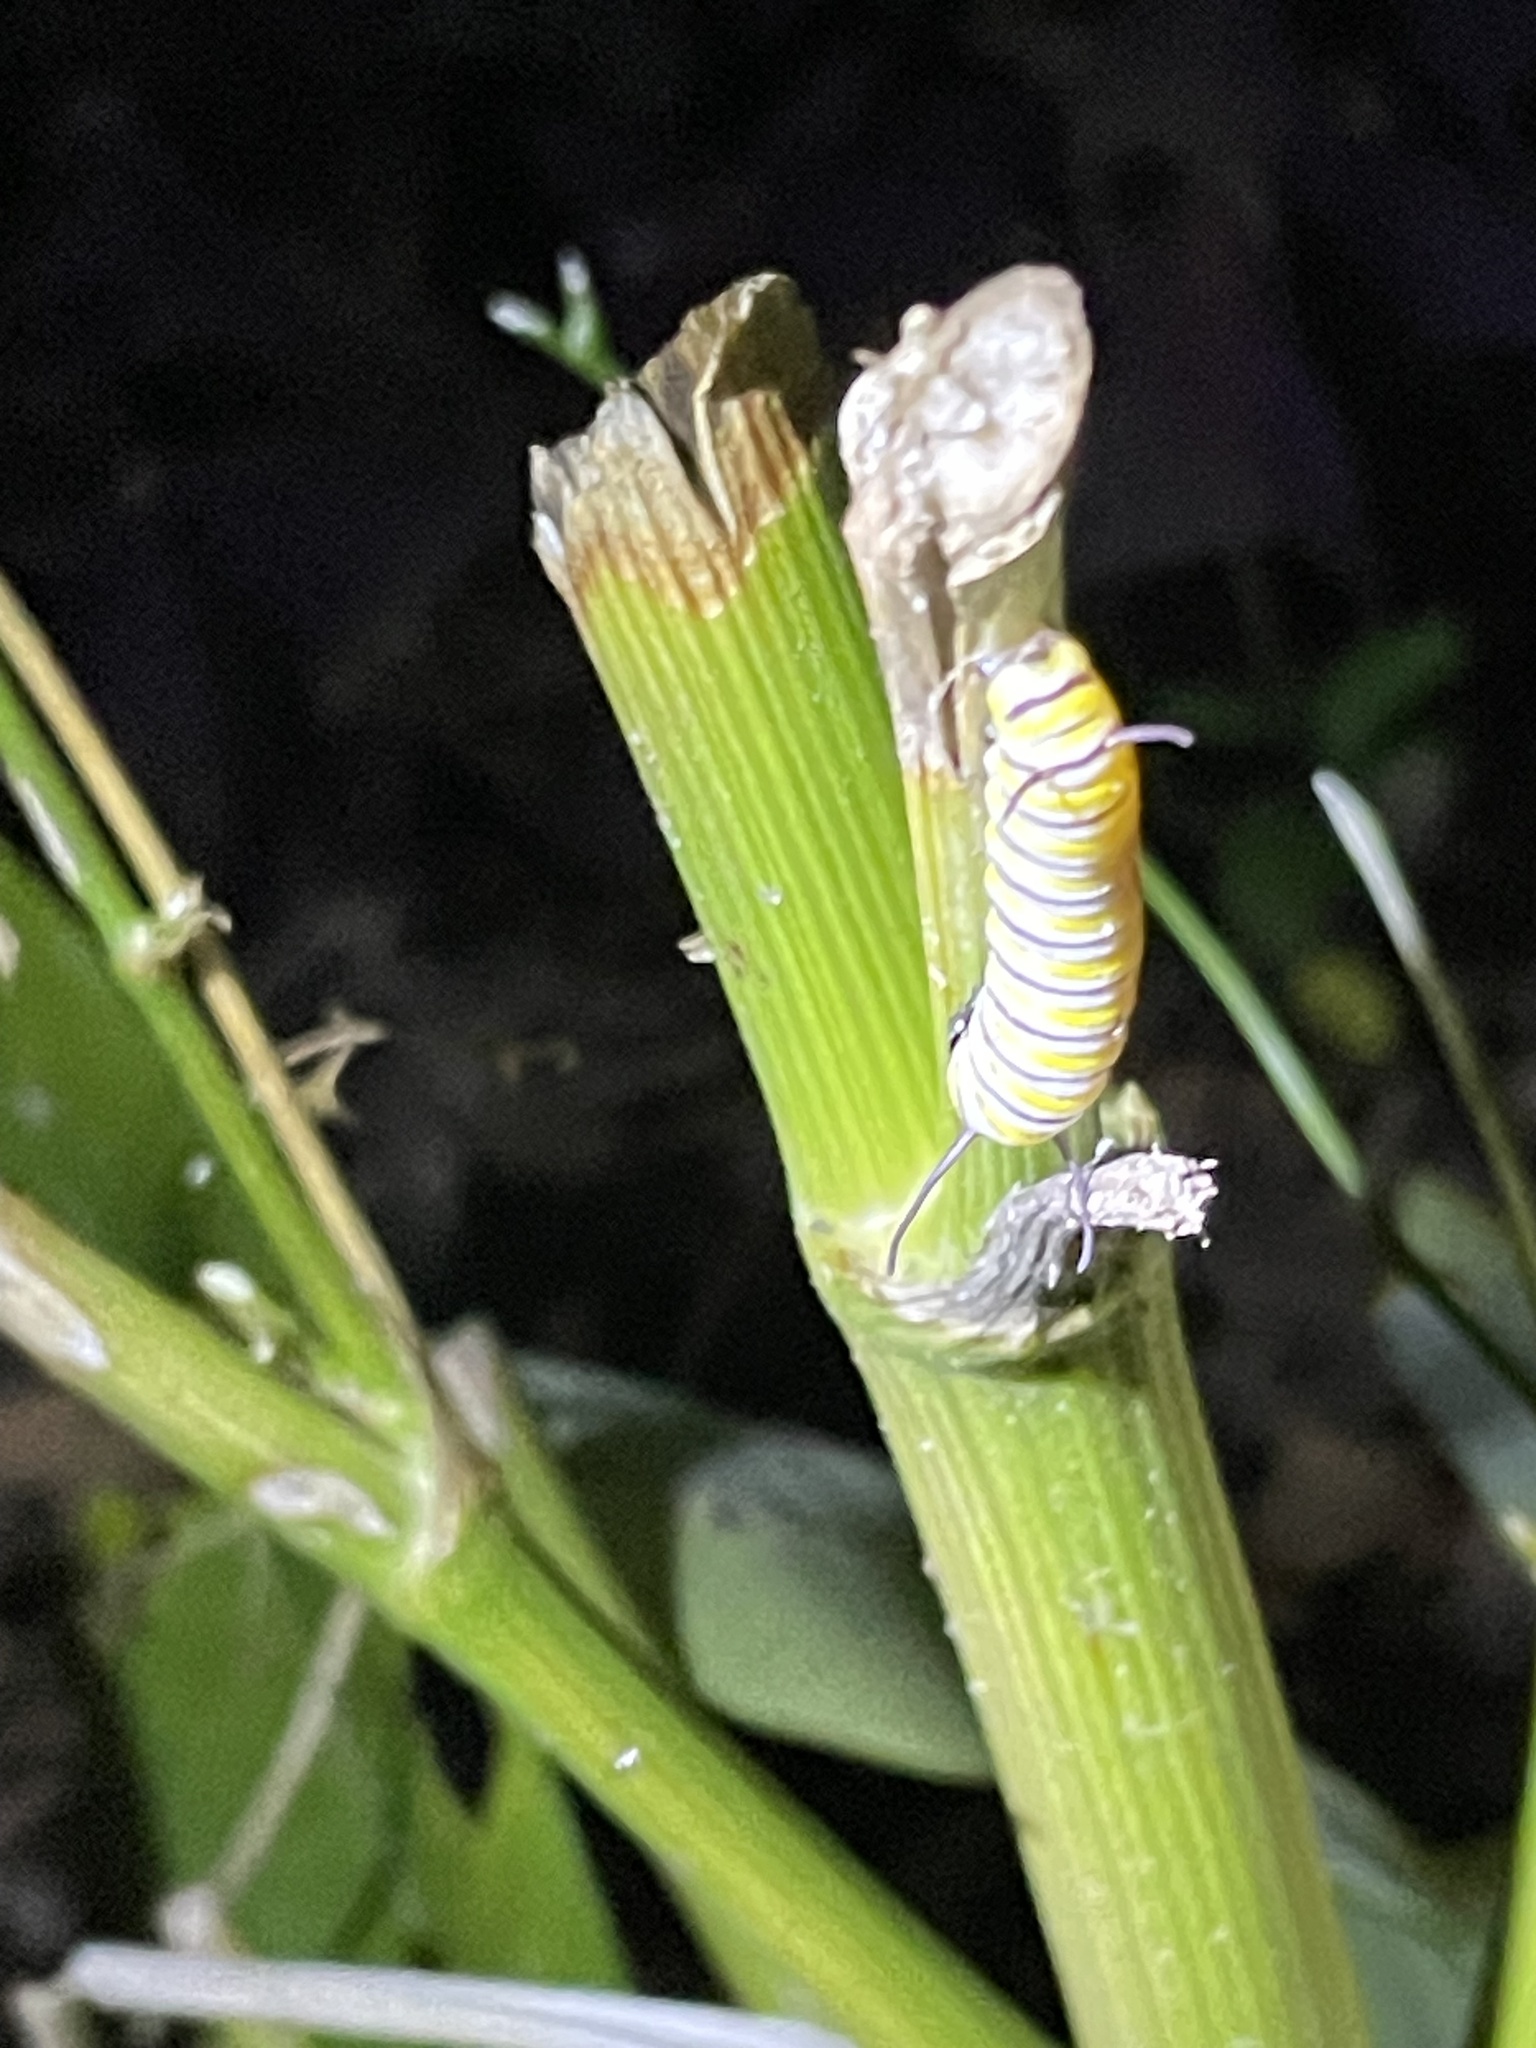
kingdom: Animalia
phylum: Arthropoda
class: Insecta
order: Lepidoptera
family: Nymphalidae
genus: Danaus
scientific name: Danaus plexippus
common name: Monarch
